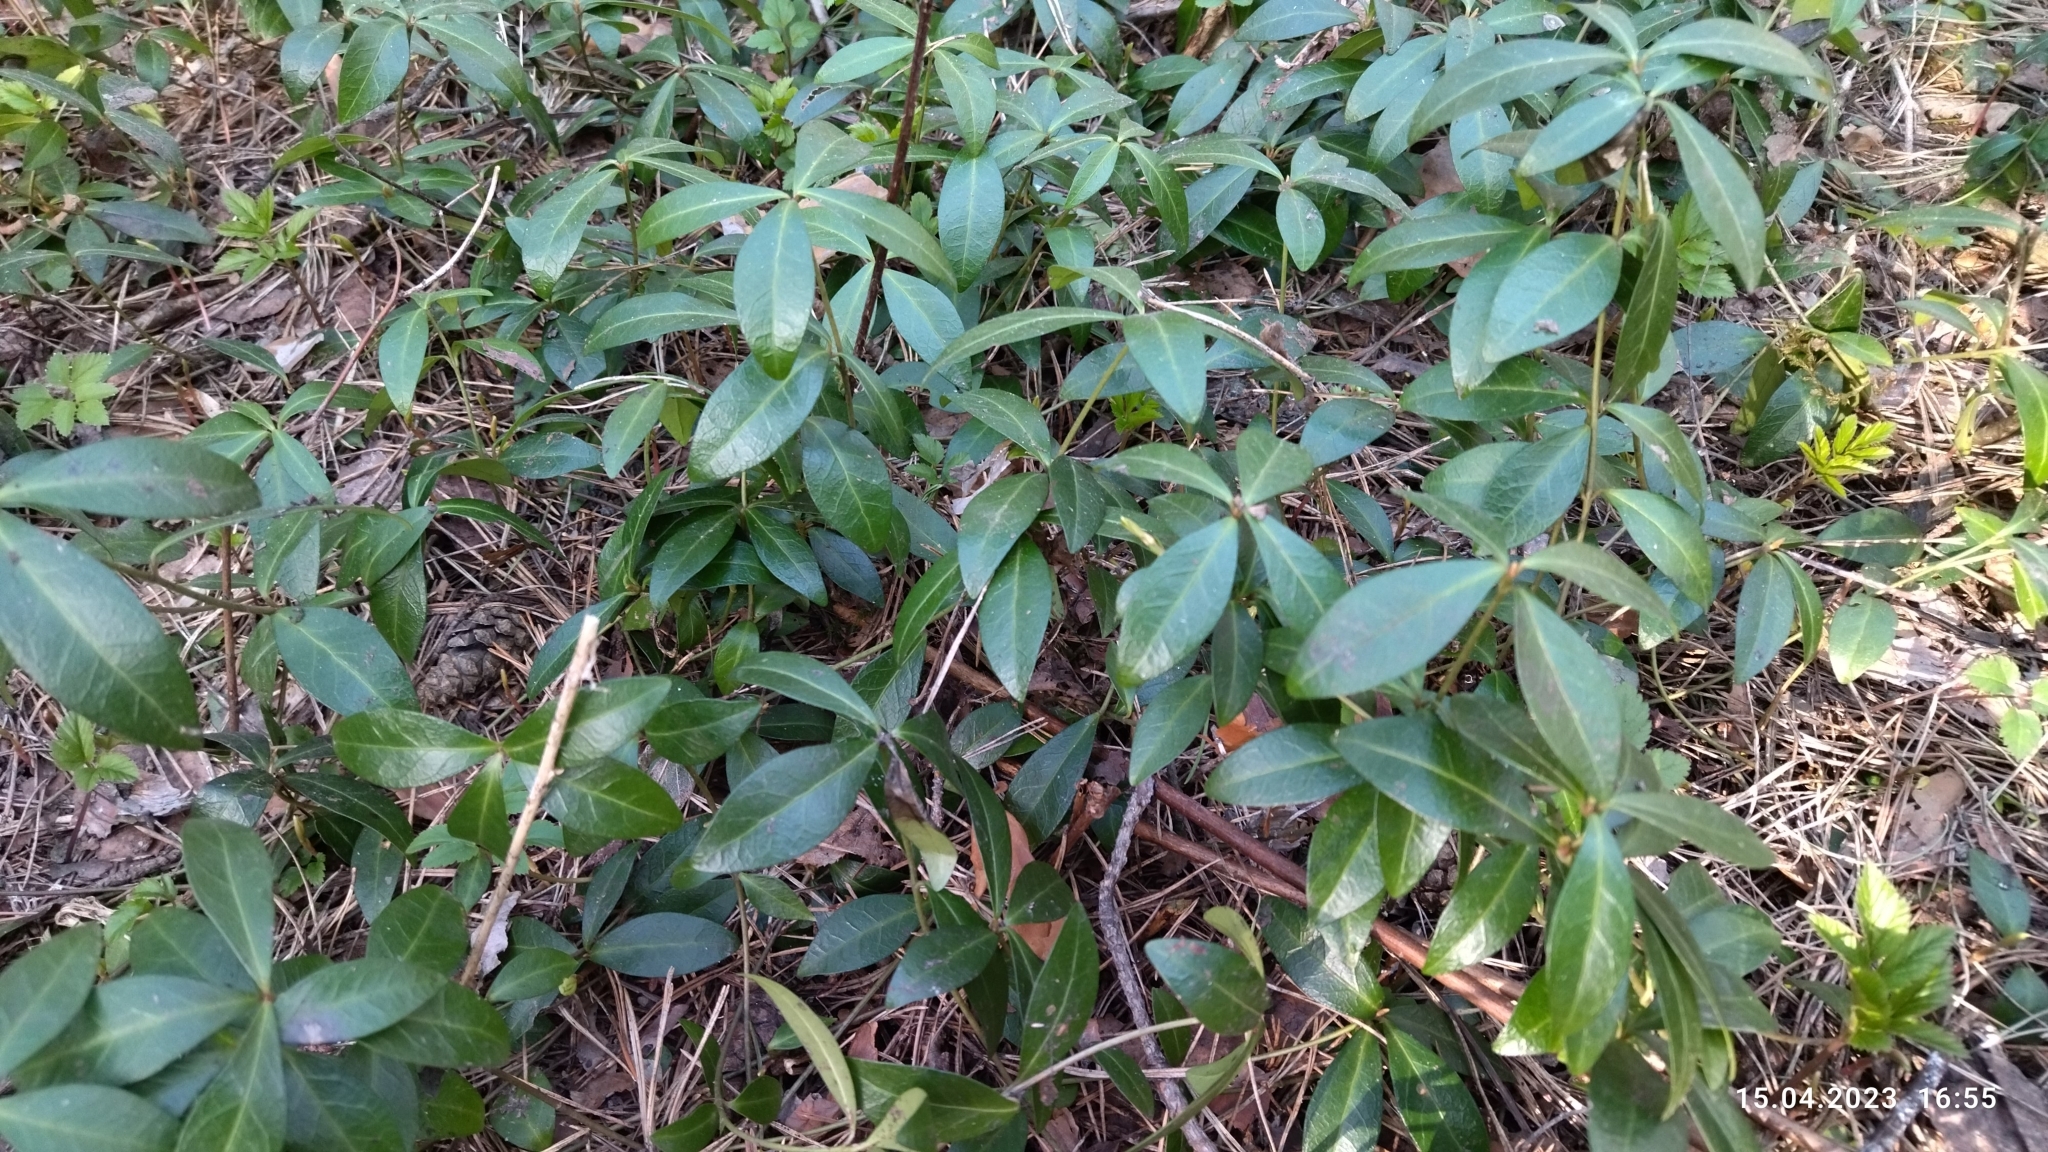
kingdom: Plantae
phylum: Tracheophyta
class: Magnoliopsida
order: Gentianales
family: Apocynaceae
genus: Vinca
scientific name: Vinca minor
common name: Lesser periwinkle
